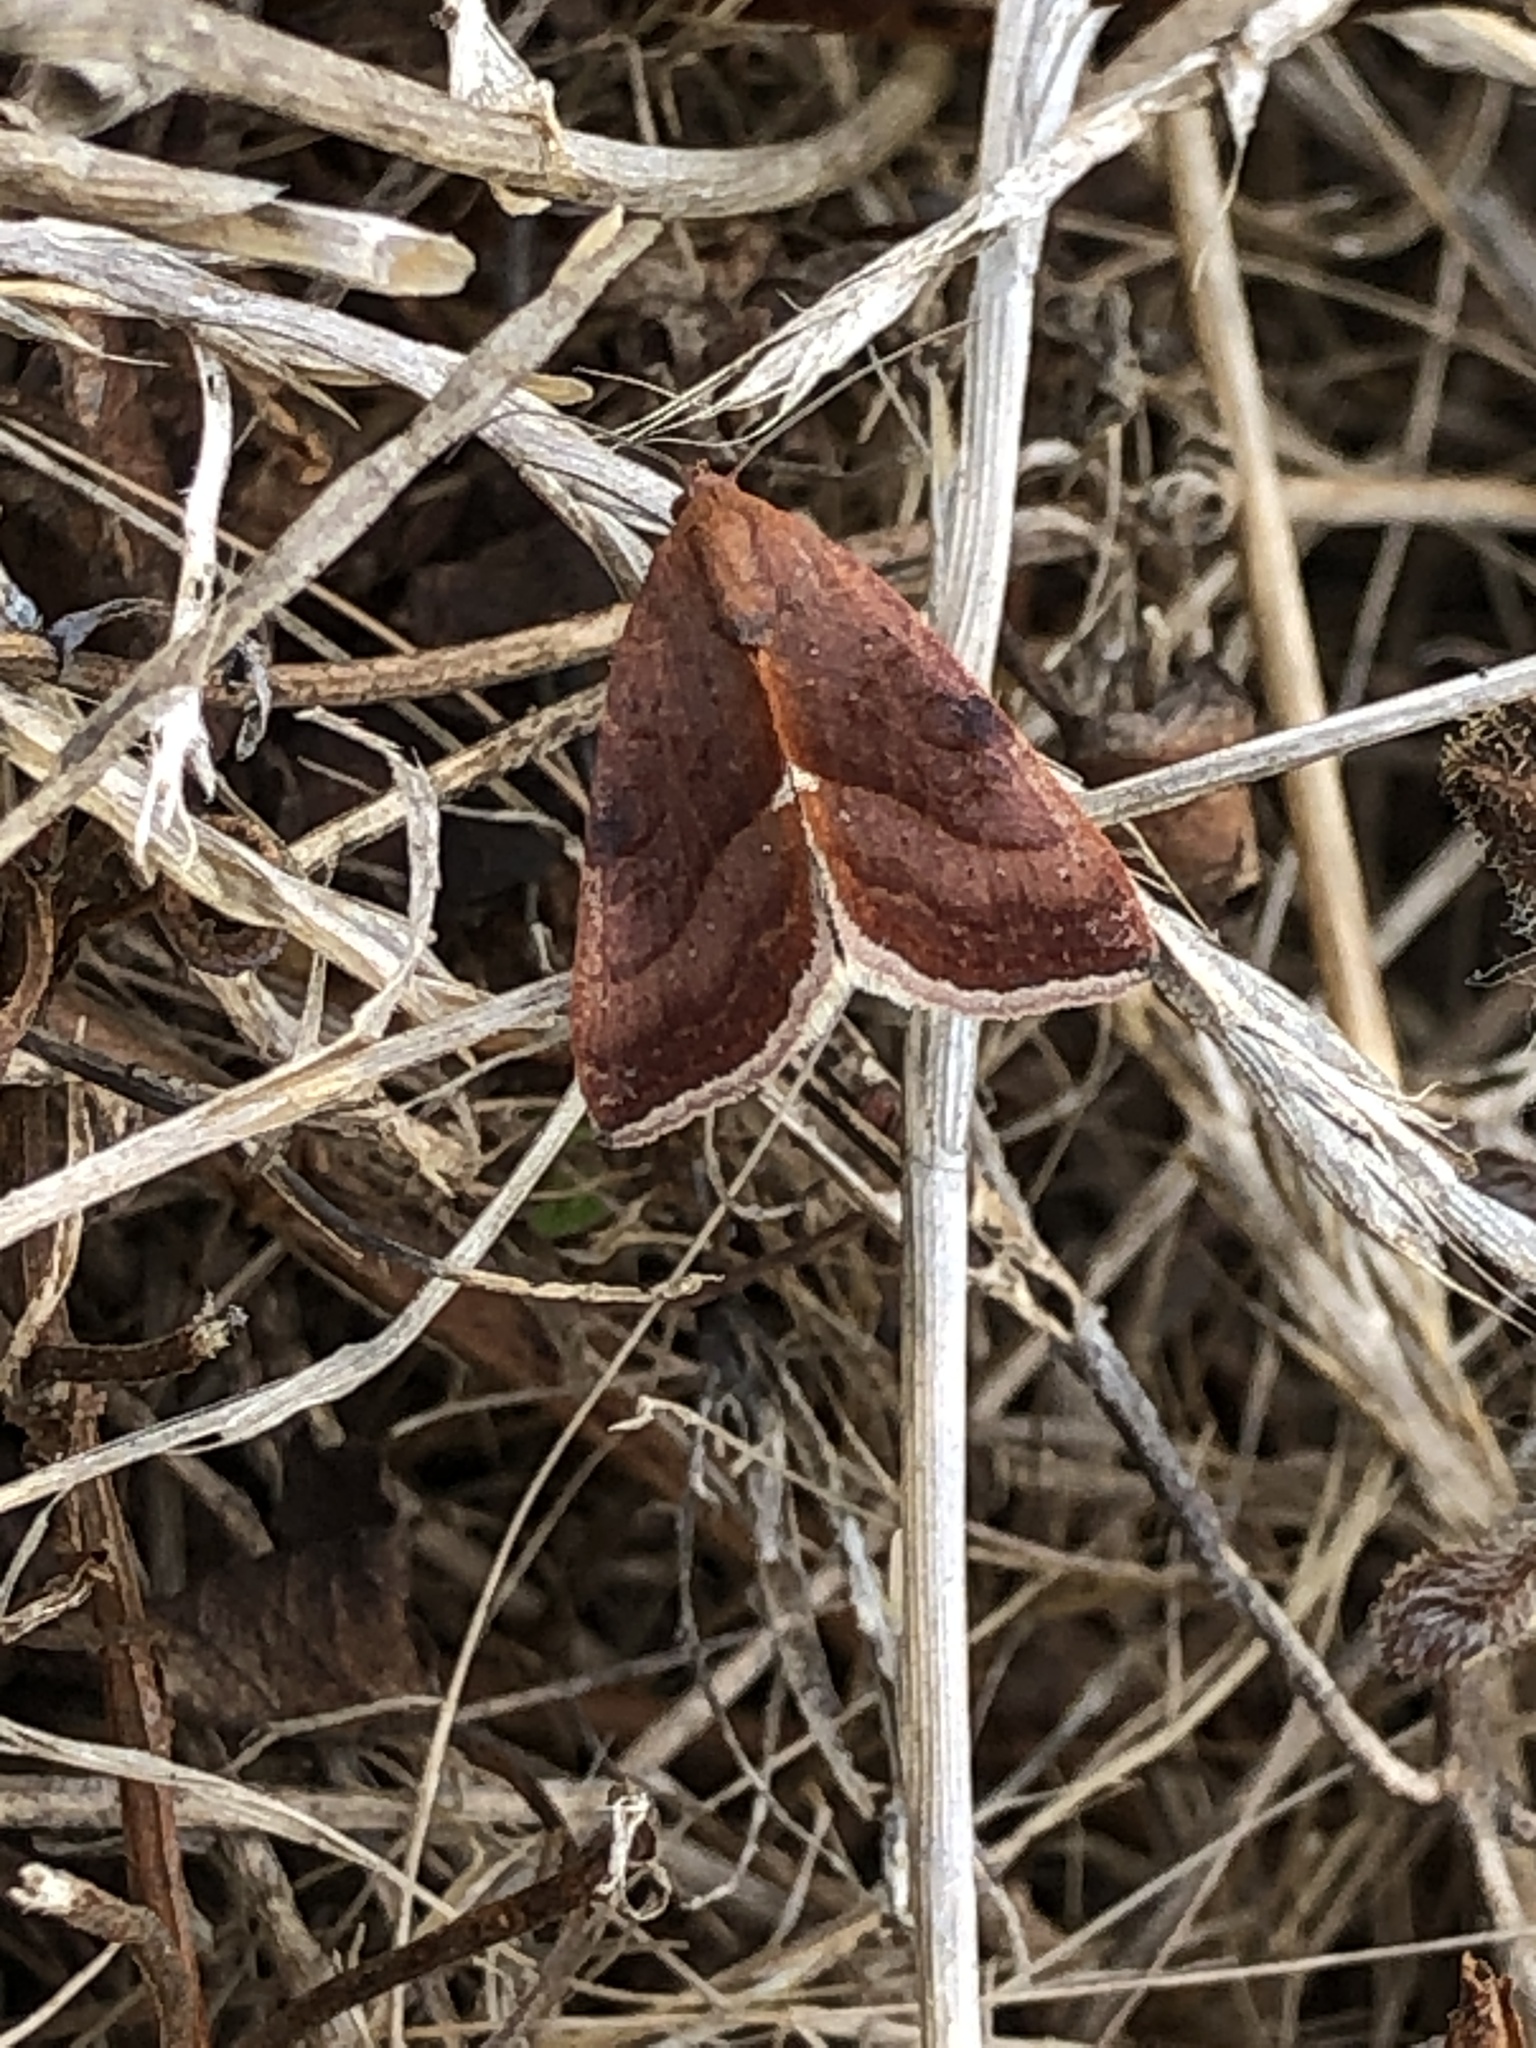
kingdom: Animalia
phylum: Arthropoda
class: Insecta
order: Lepidoptera
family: Noctuidae
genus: Galgula
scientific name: Galgula partita
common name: Wedgeling
